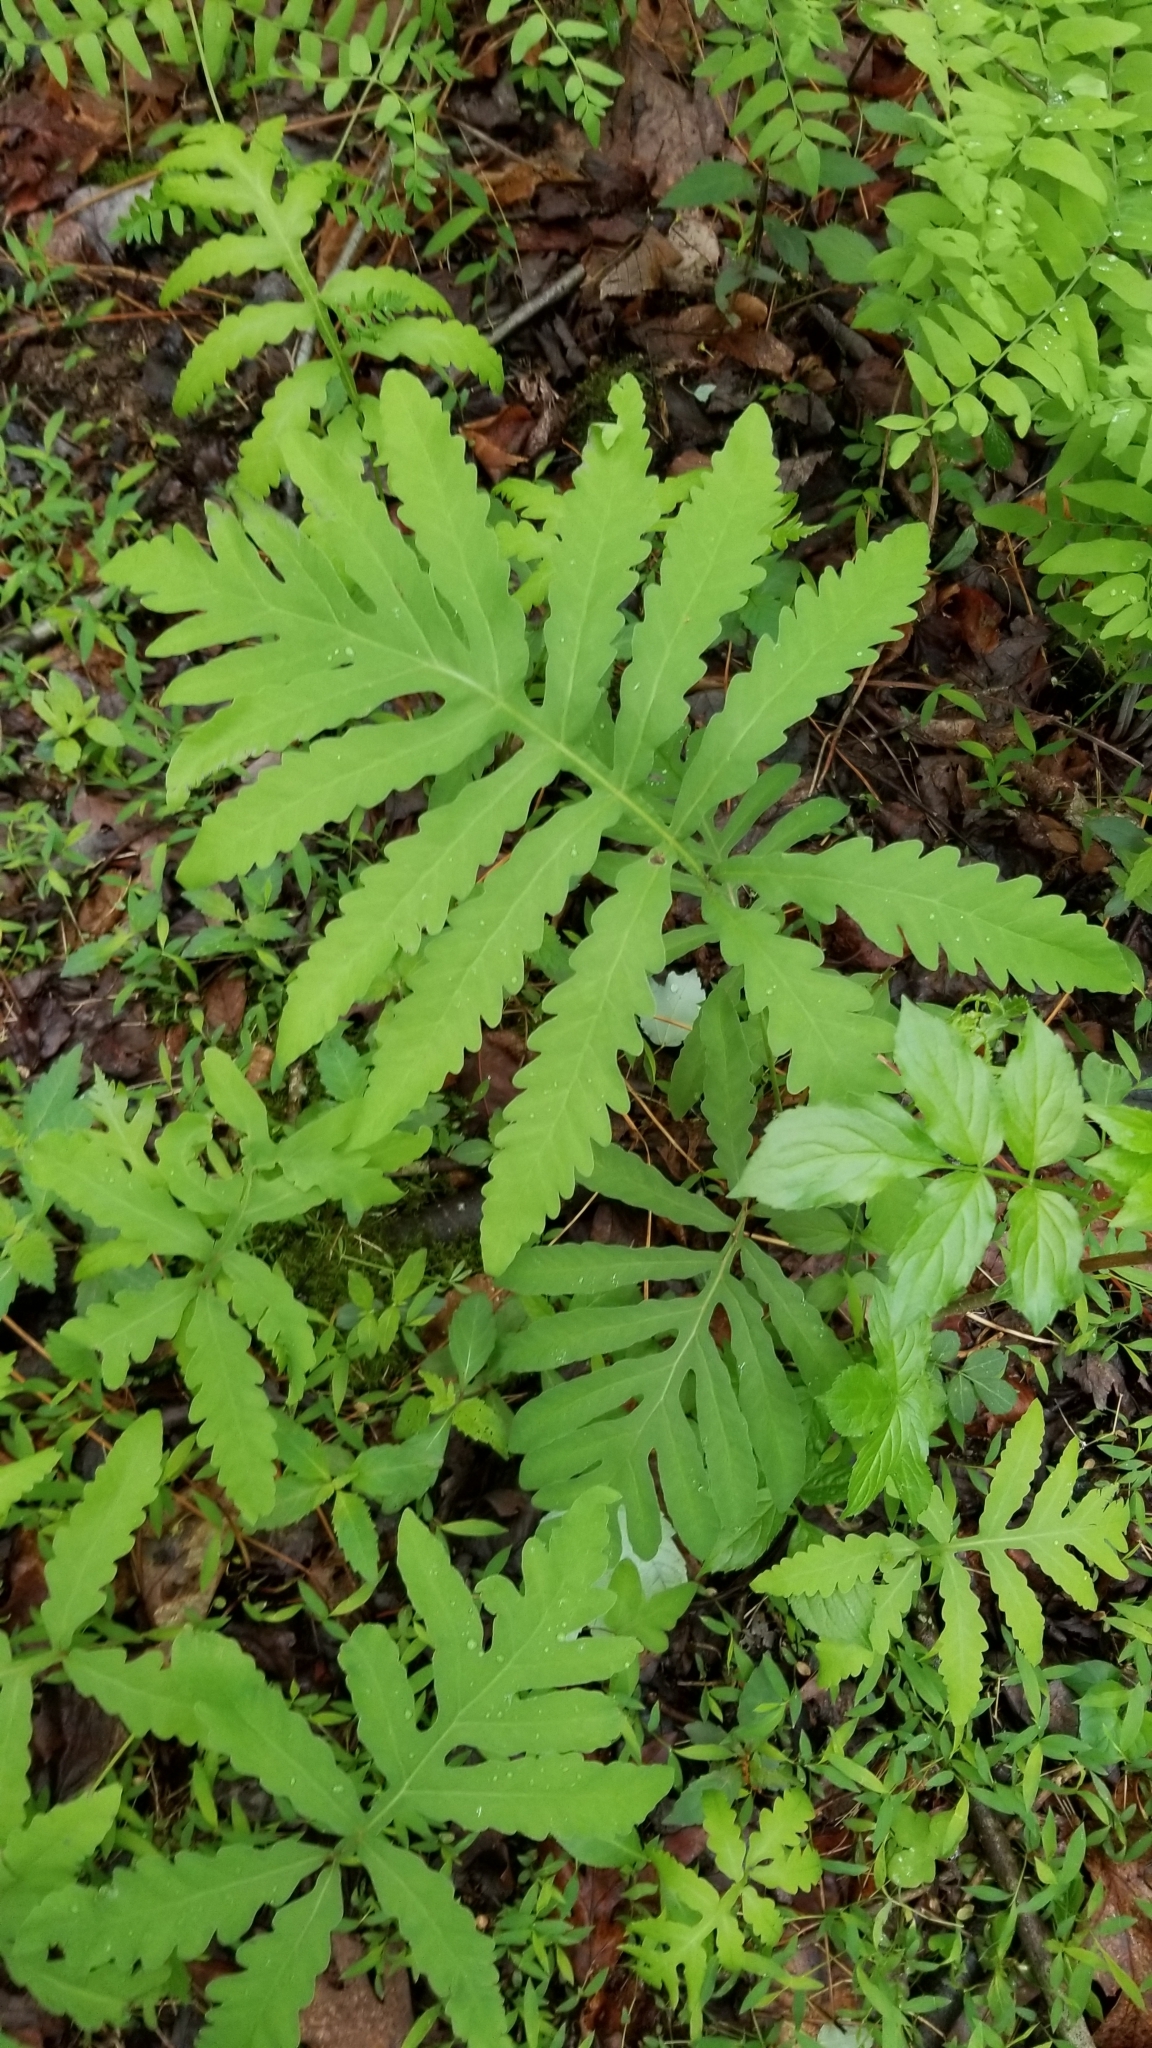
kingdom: Plantae
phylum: Tracheophyta
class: Polypodiopsida
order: Polypodiales
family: Onocleaceae
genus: Onoclea
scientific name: Onoclea sensibilis
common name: Sensitive fern
